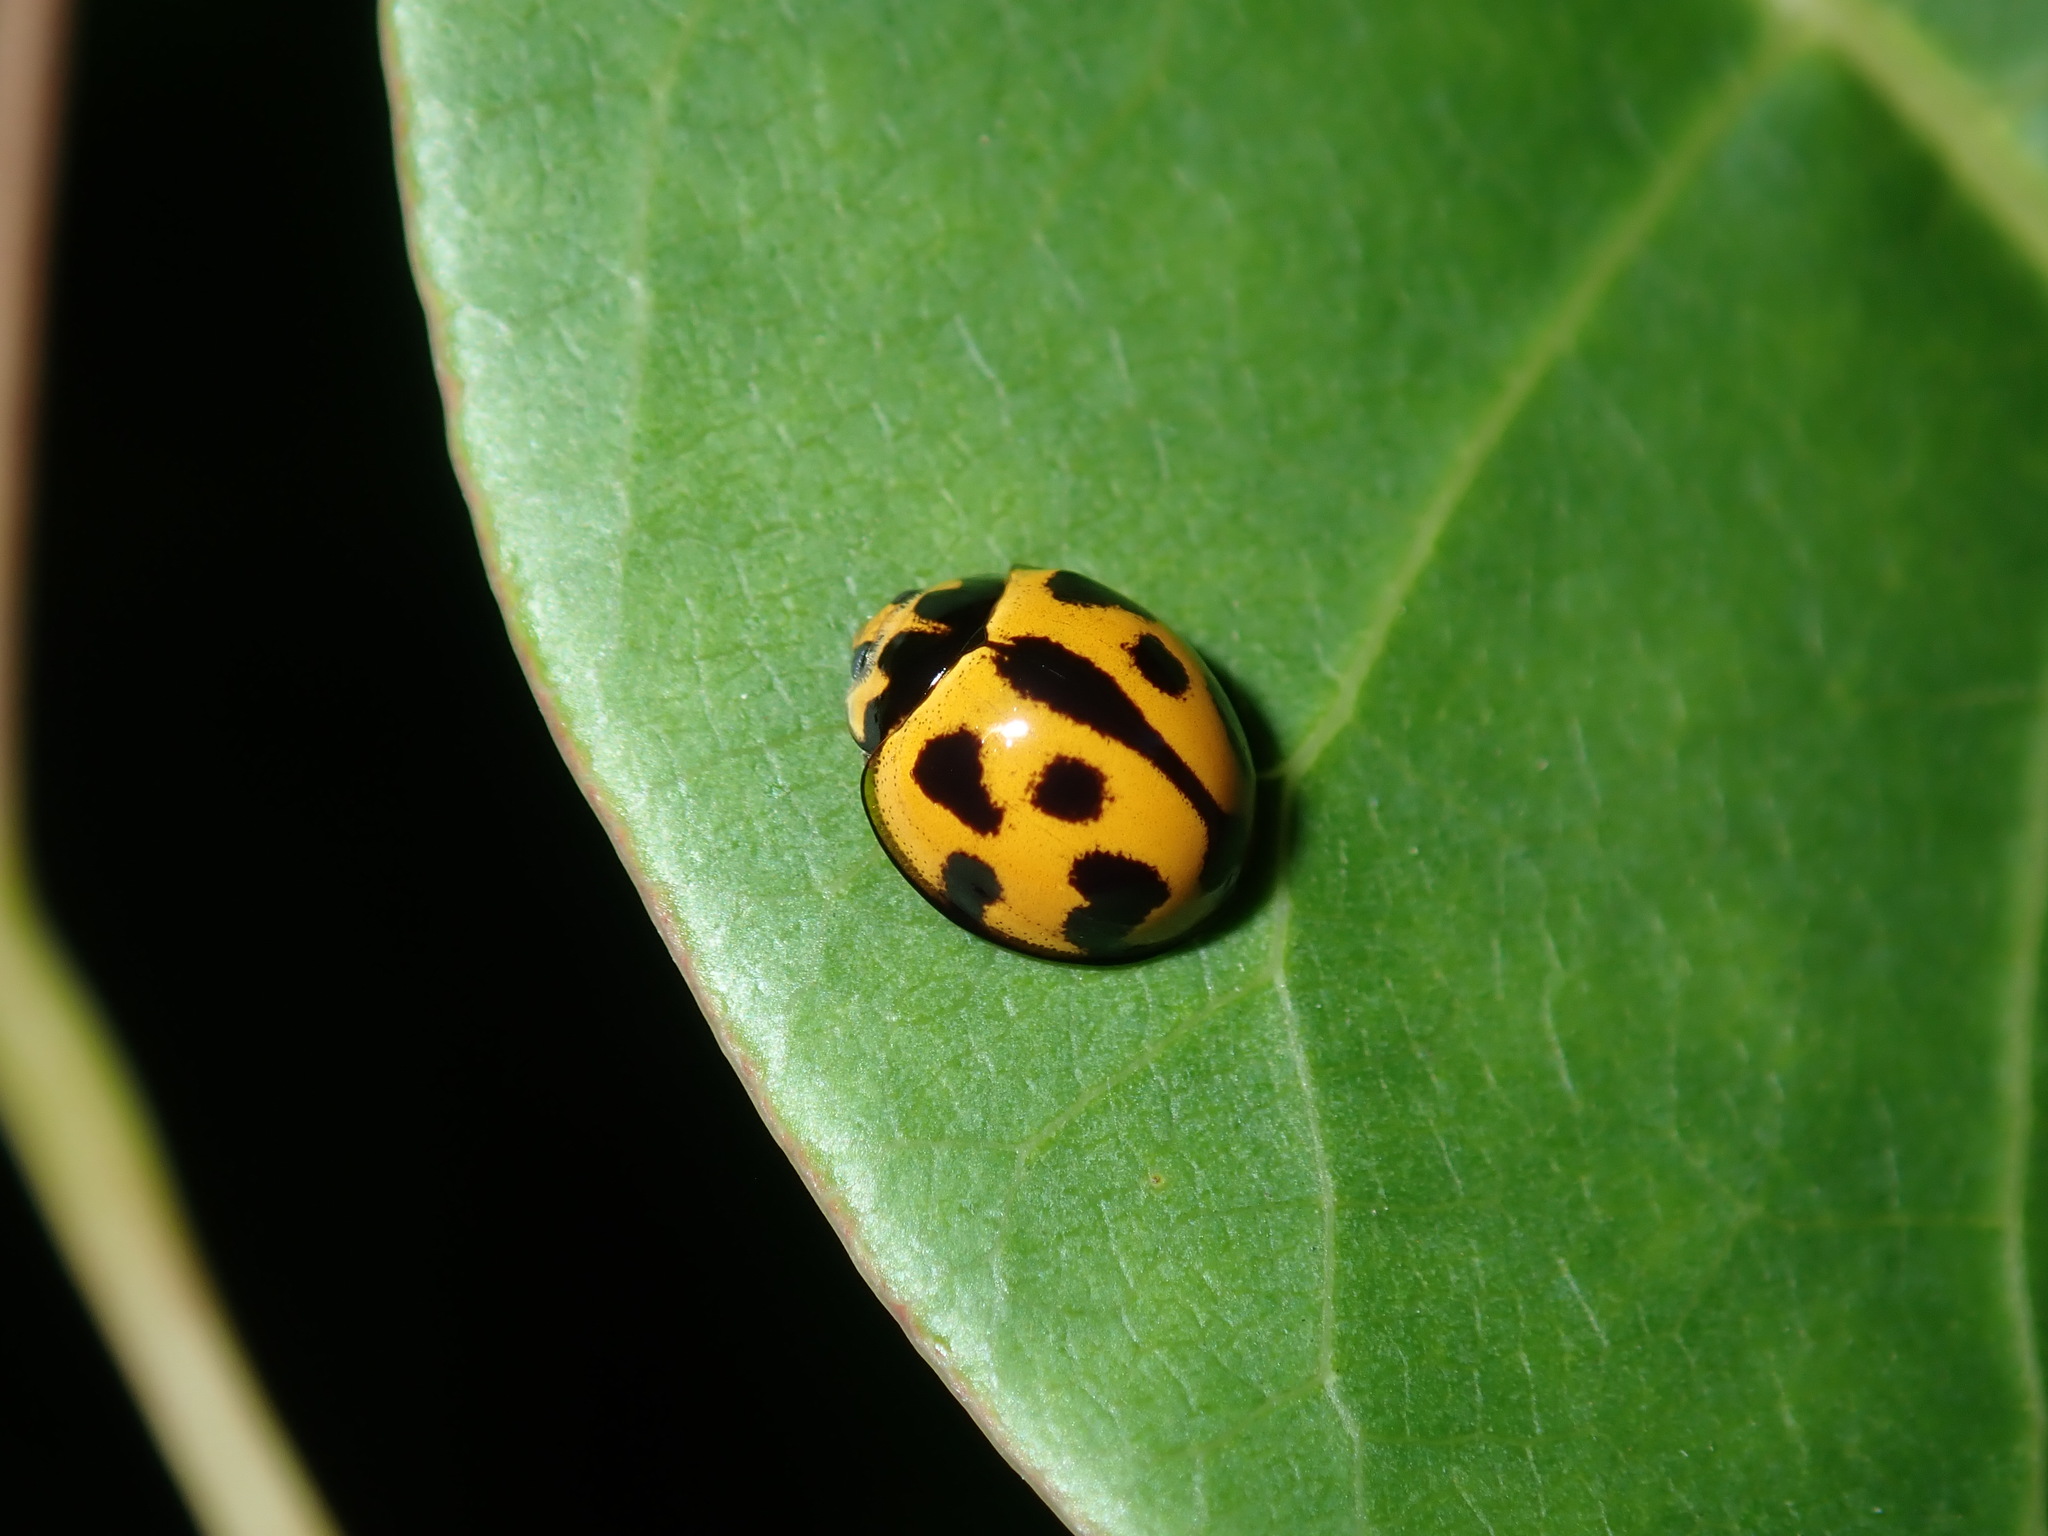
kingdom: Animalia
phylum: Arthropoda
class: Insecta
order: Coleoptera
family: Coccinellidae
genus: Coelophora
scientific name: Coelophora inaequalis
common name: Common australian lady beetle
